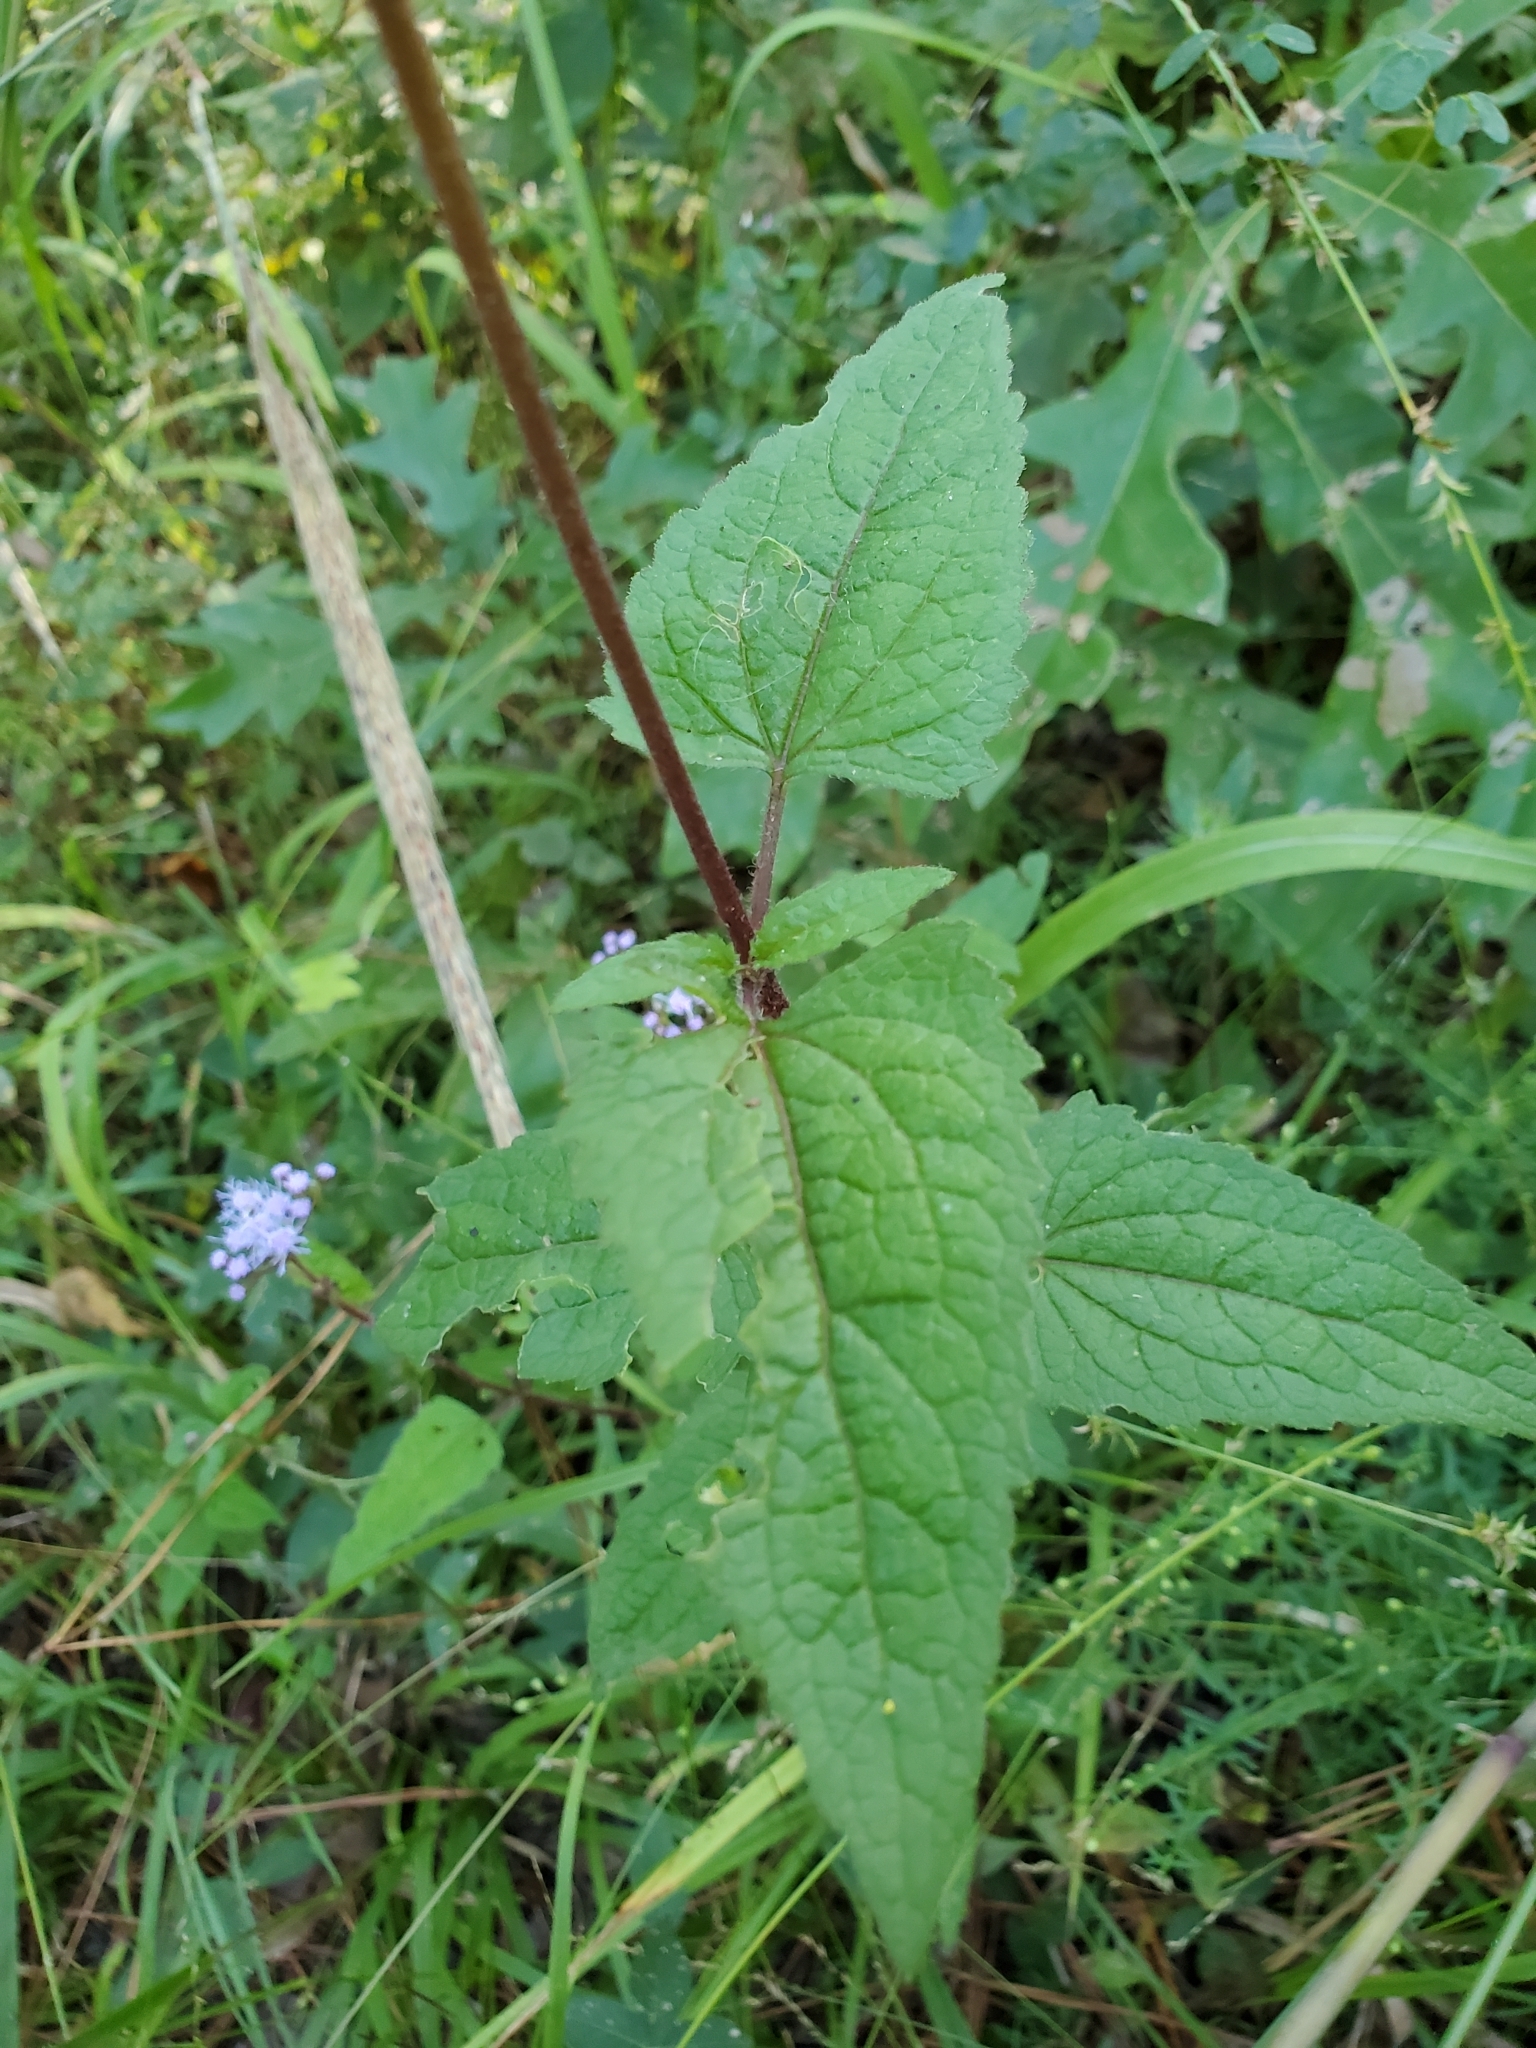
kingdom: Plantae
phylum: Tracheophyta
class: Magnoliopsida
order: Asterales
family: Asteraceae
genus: Conoclinium
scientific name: Conoclinium coelestinum
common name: Blue mistflower
